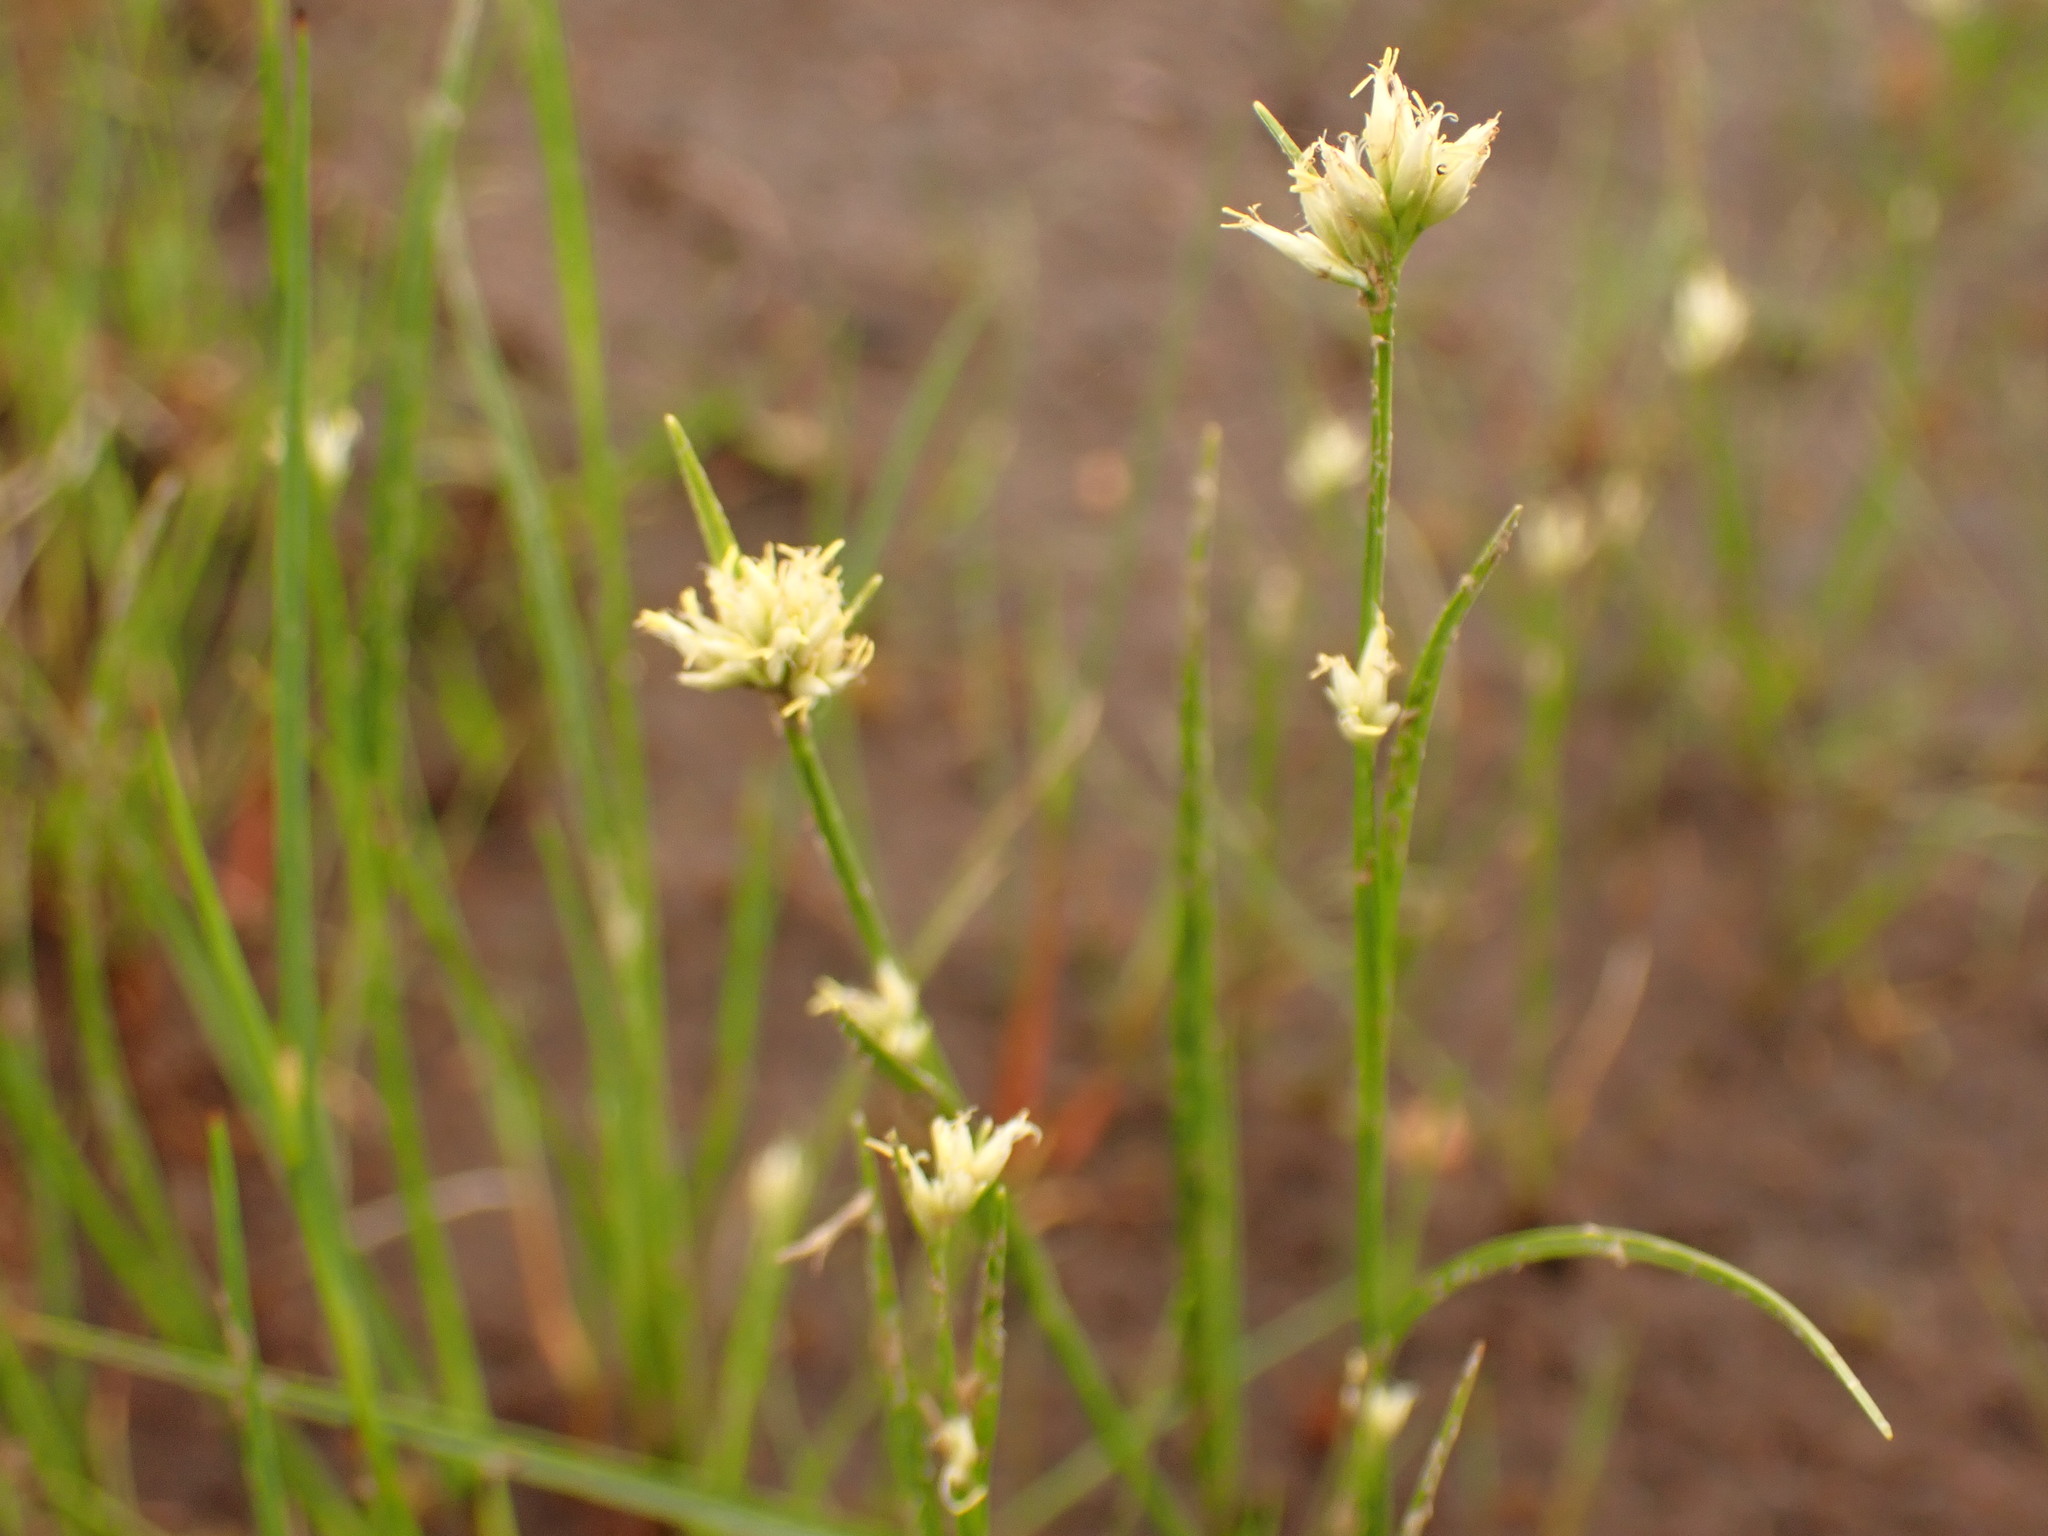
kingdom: Plantae
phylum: Tracheophyta
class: Liliopsida
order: Poales
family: Cyperaceae
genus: Rhynchospora
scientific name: Rhynchospora alba
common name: White beak-sedge
